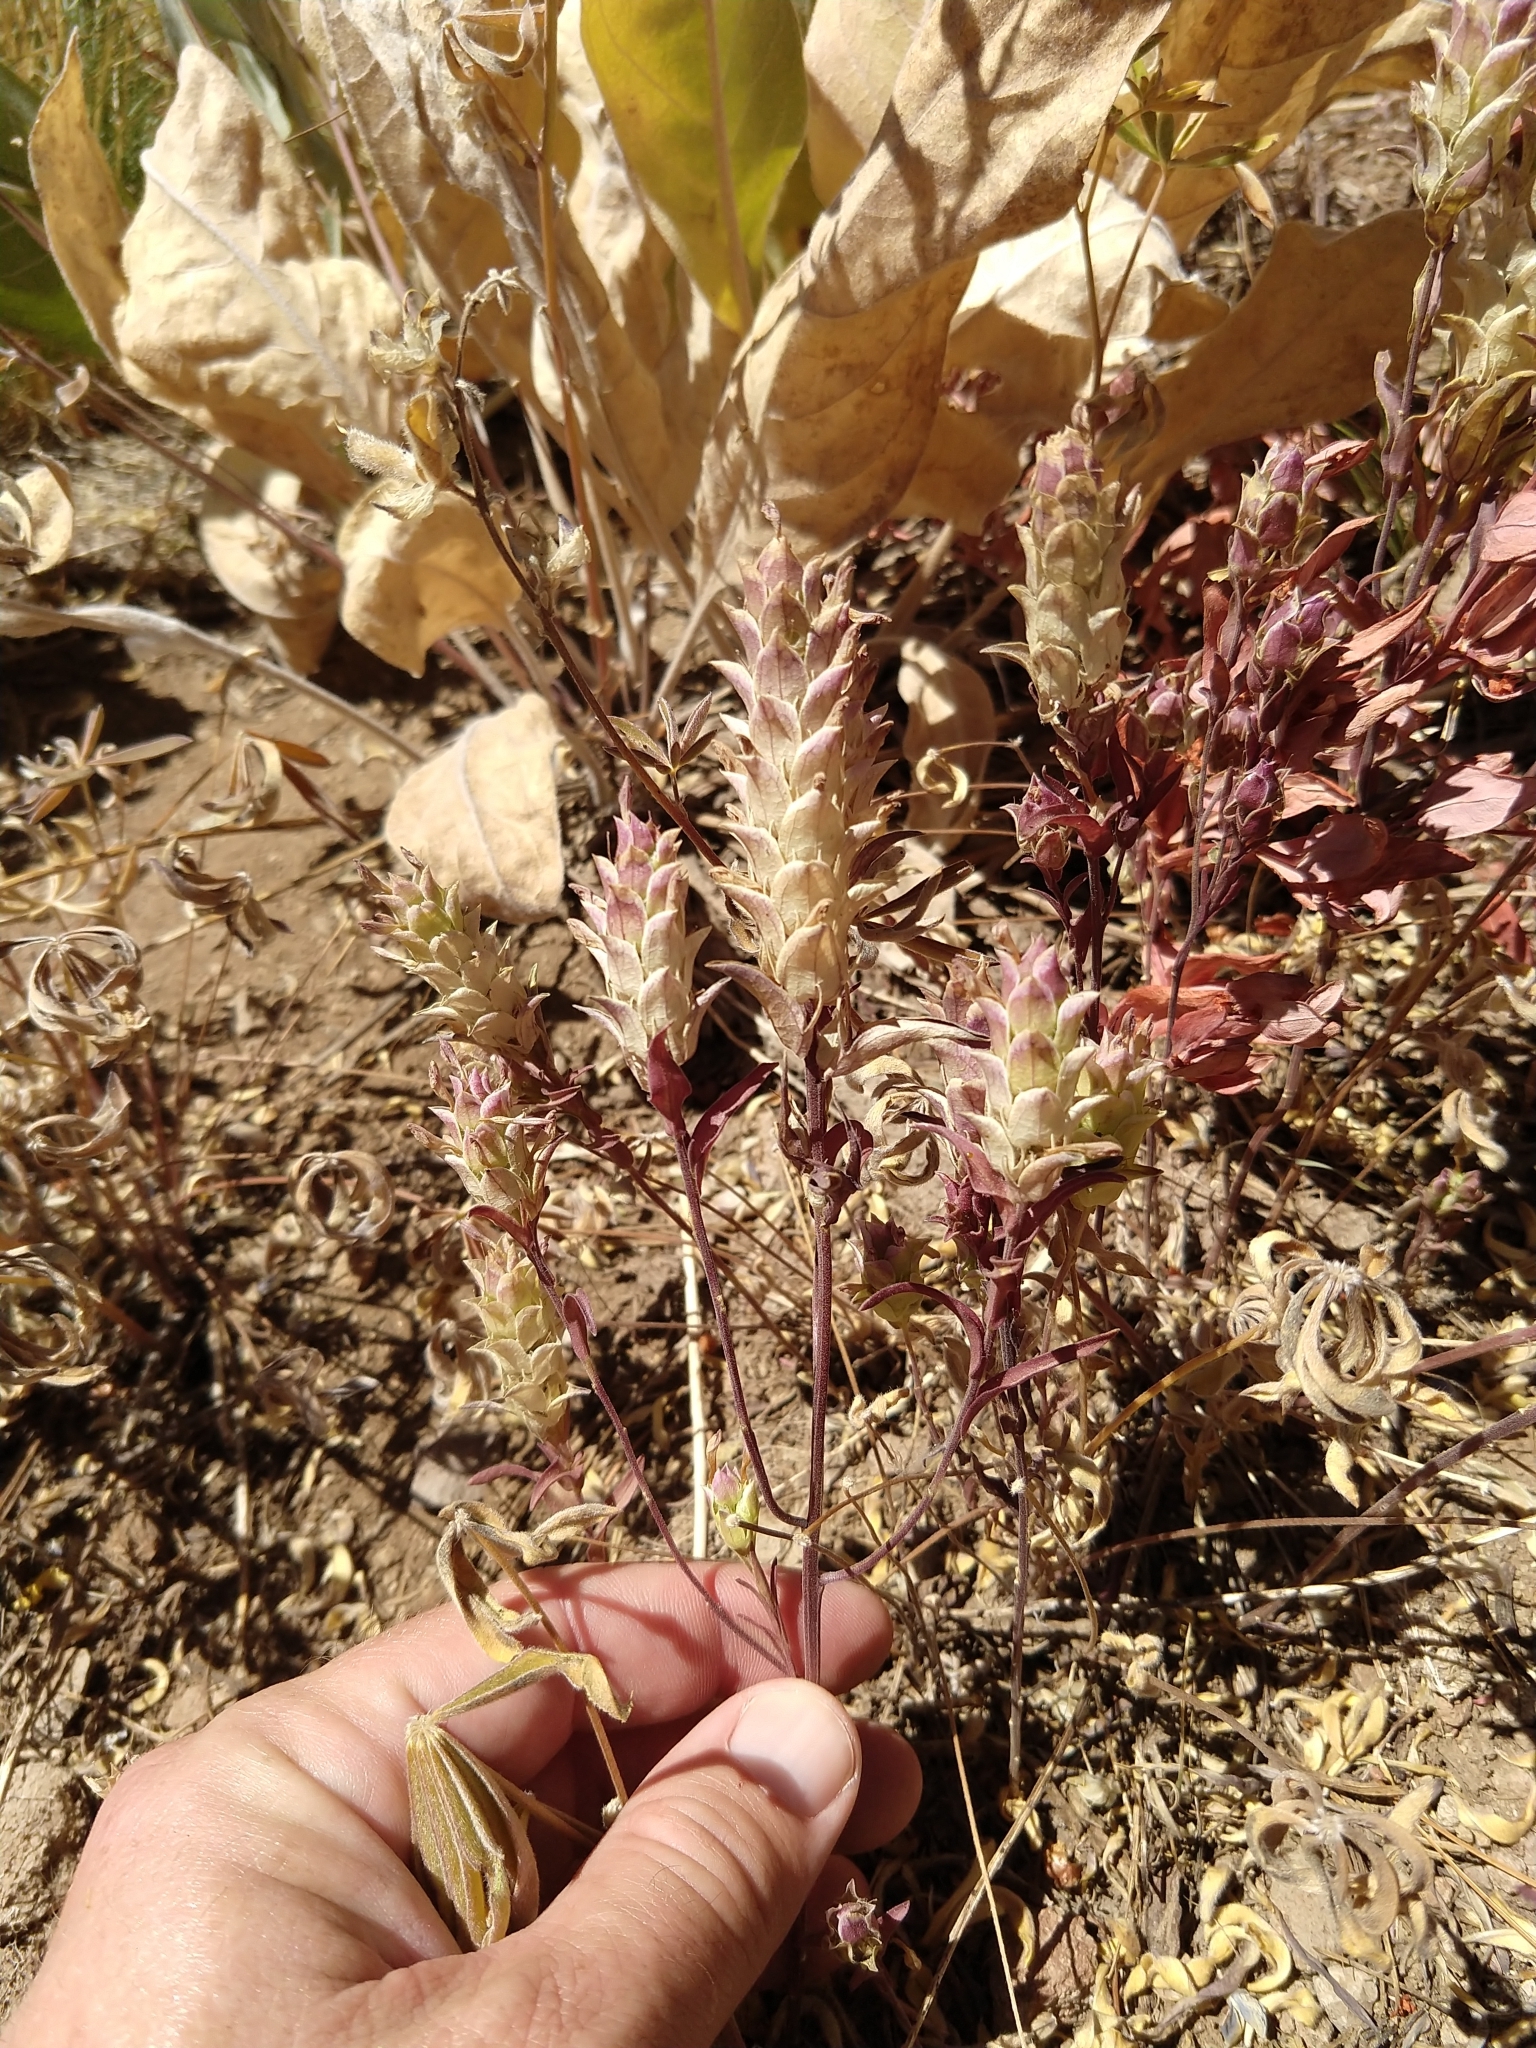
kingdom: Plantae
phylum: Tracheophyta
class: Magnoliopsida
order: Lamiales
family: Orobanchaceae
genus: Orthocarpus
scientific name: Orthocarpus cuspidatus
